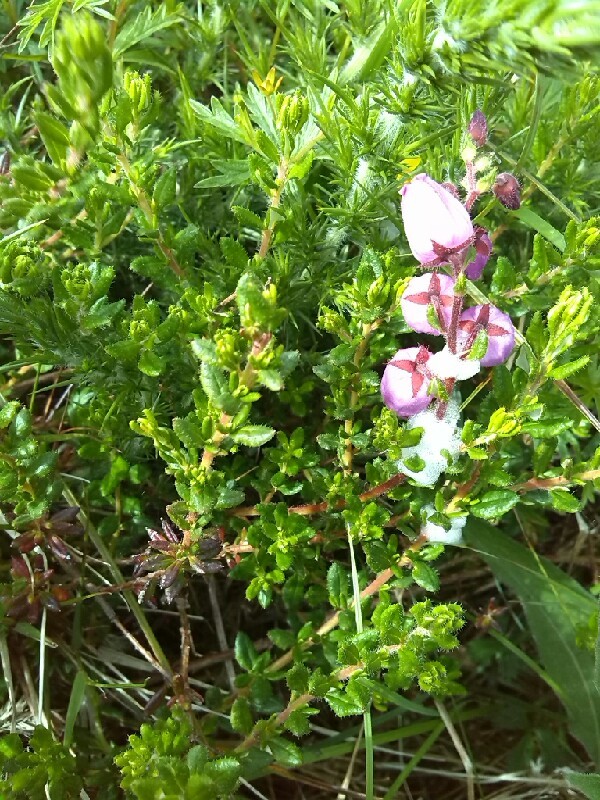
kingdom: Plantae
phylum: Tracheophyta
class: Magnoliopsida
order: Ericales
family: Ericaceae
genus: Daboecia
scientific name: Daboecia cantabrica
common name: St. dabeoc's-heath
